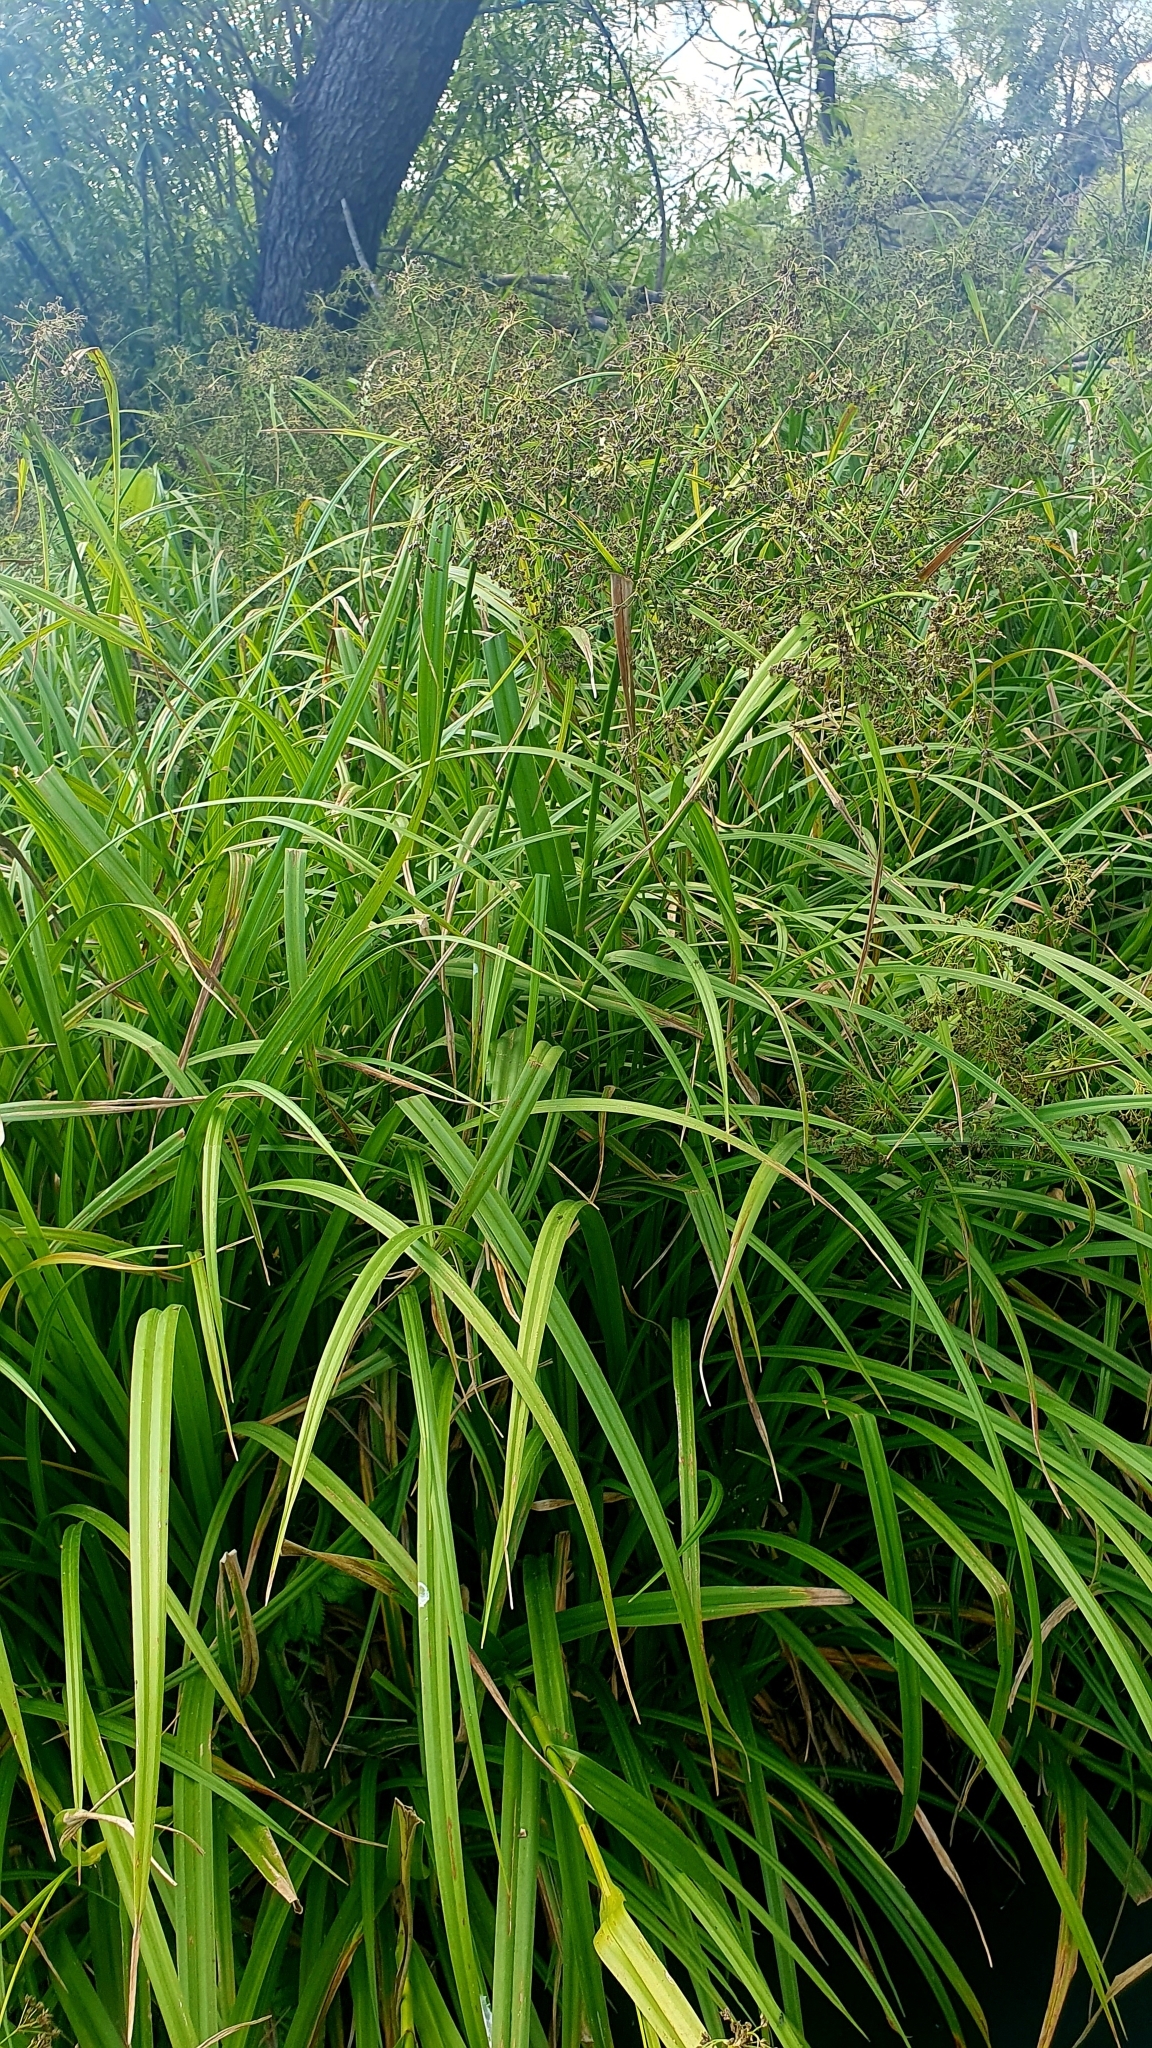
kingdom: Plantae
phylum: Tracheophyta
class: Liliopsida
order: Poales
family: Cyperaceae
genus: Scirpus
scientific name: Scirpus sylvaticus
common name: Wood club-rush
